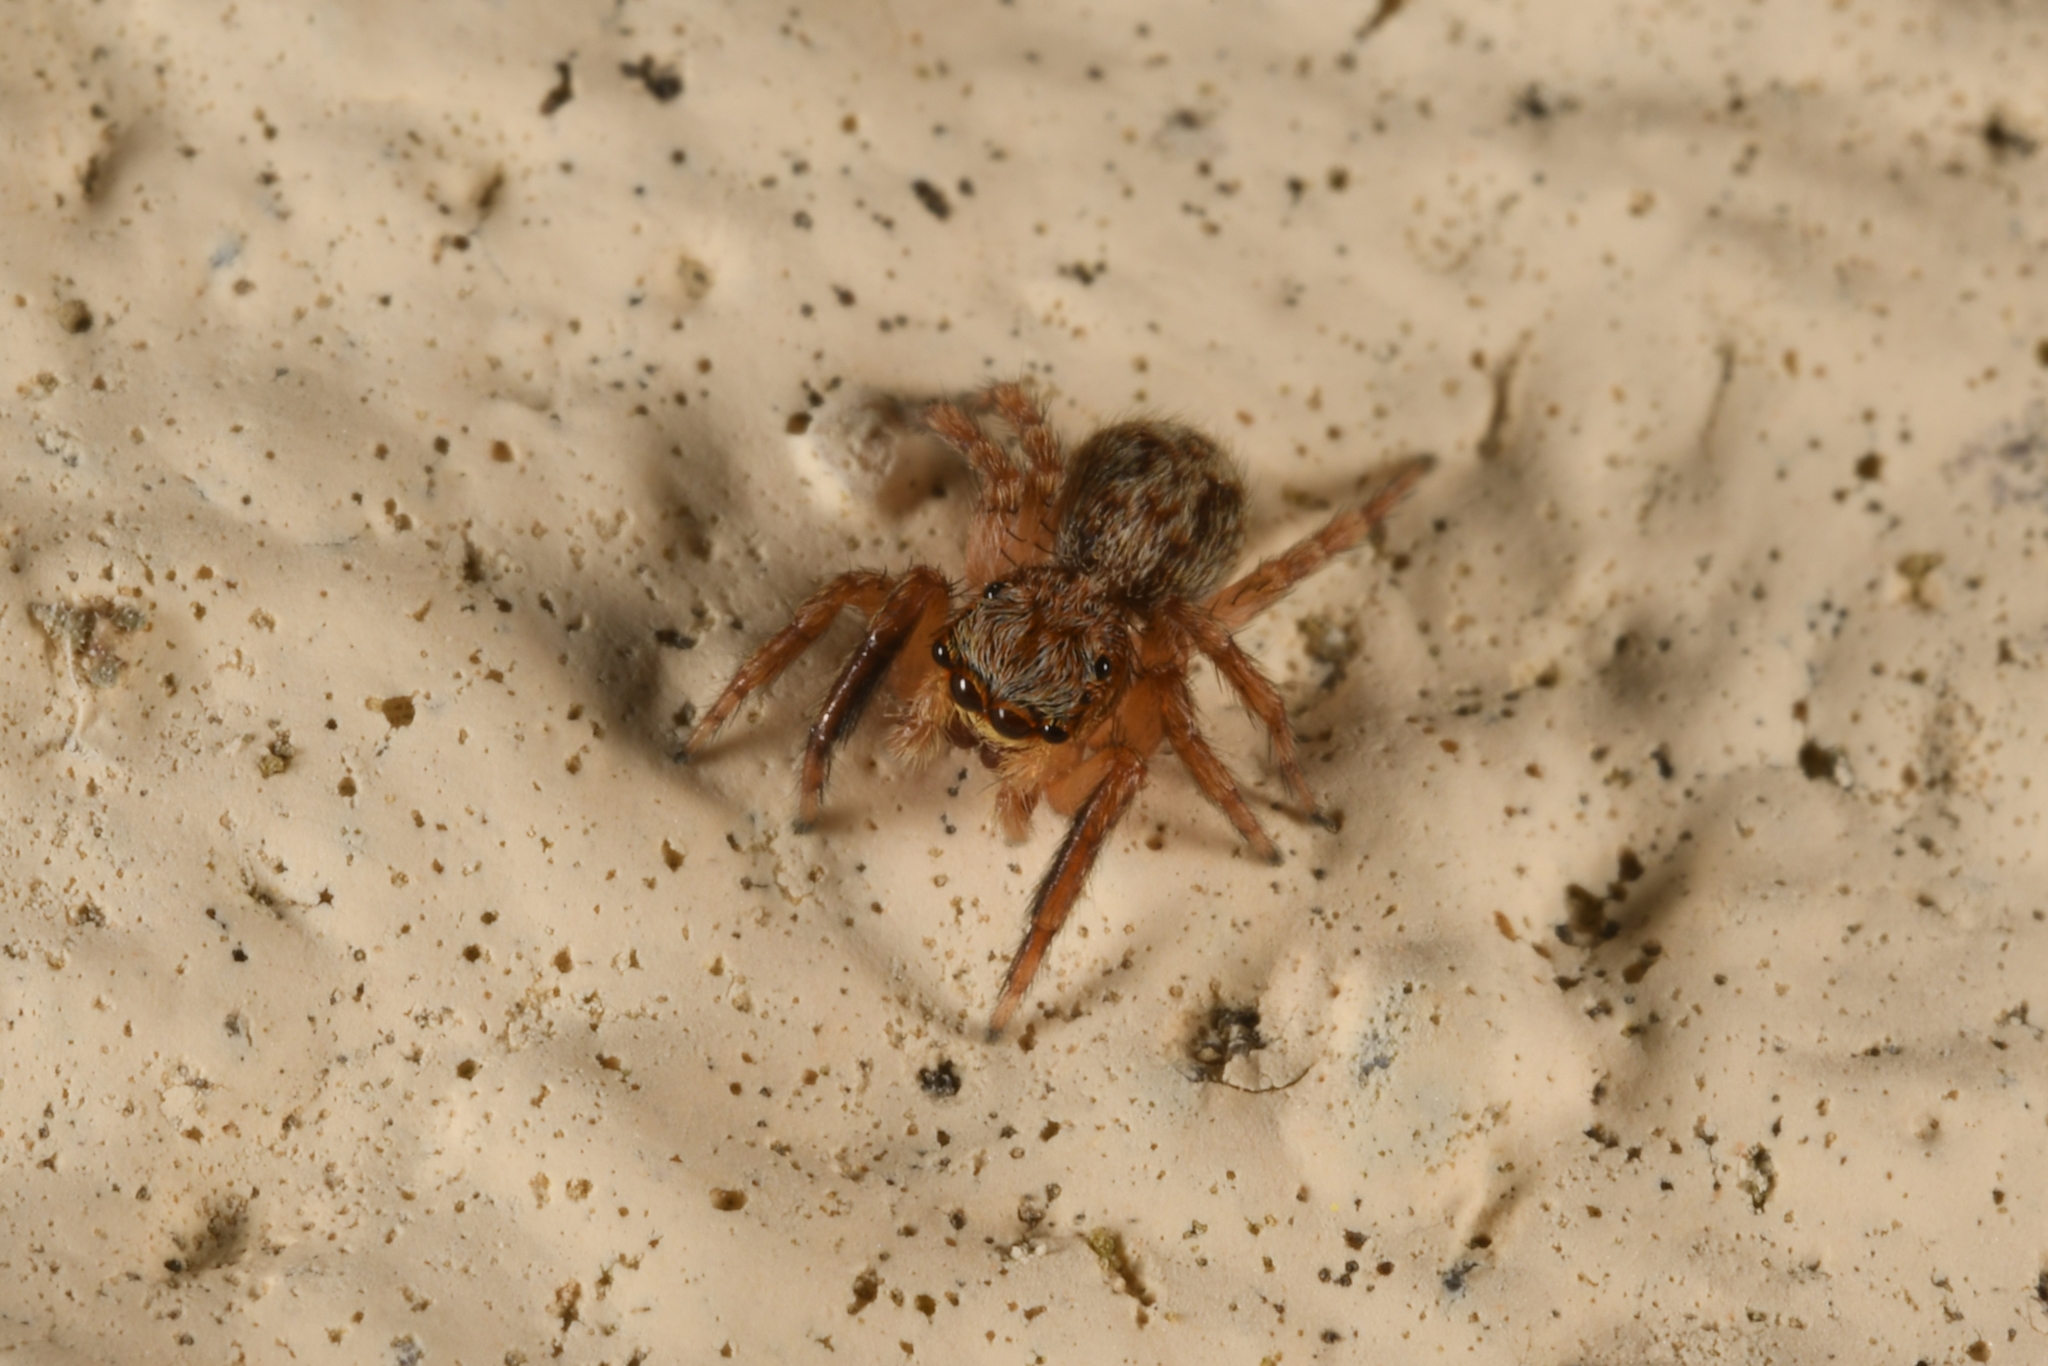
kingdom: Animalia
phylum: Arthropoda
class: Arachnida
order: Araneae
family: Salticidae
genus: Pseudeuophrys
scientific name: Pseudeuophrys vafra
